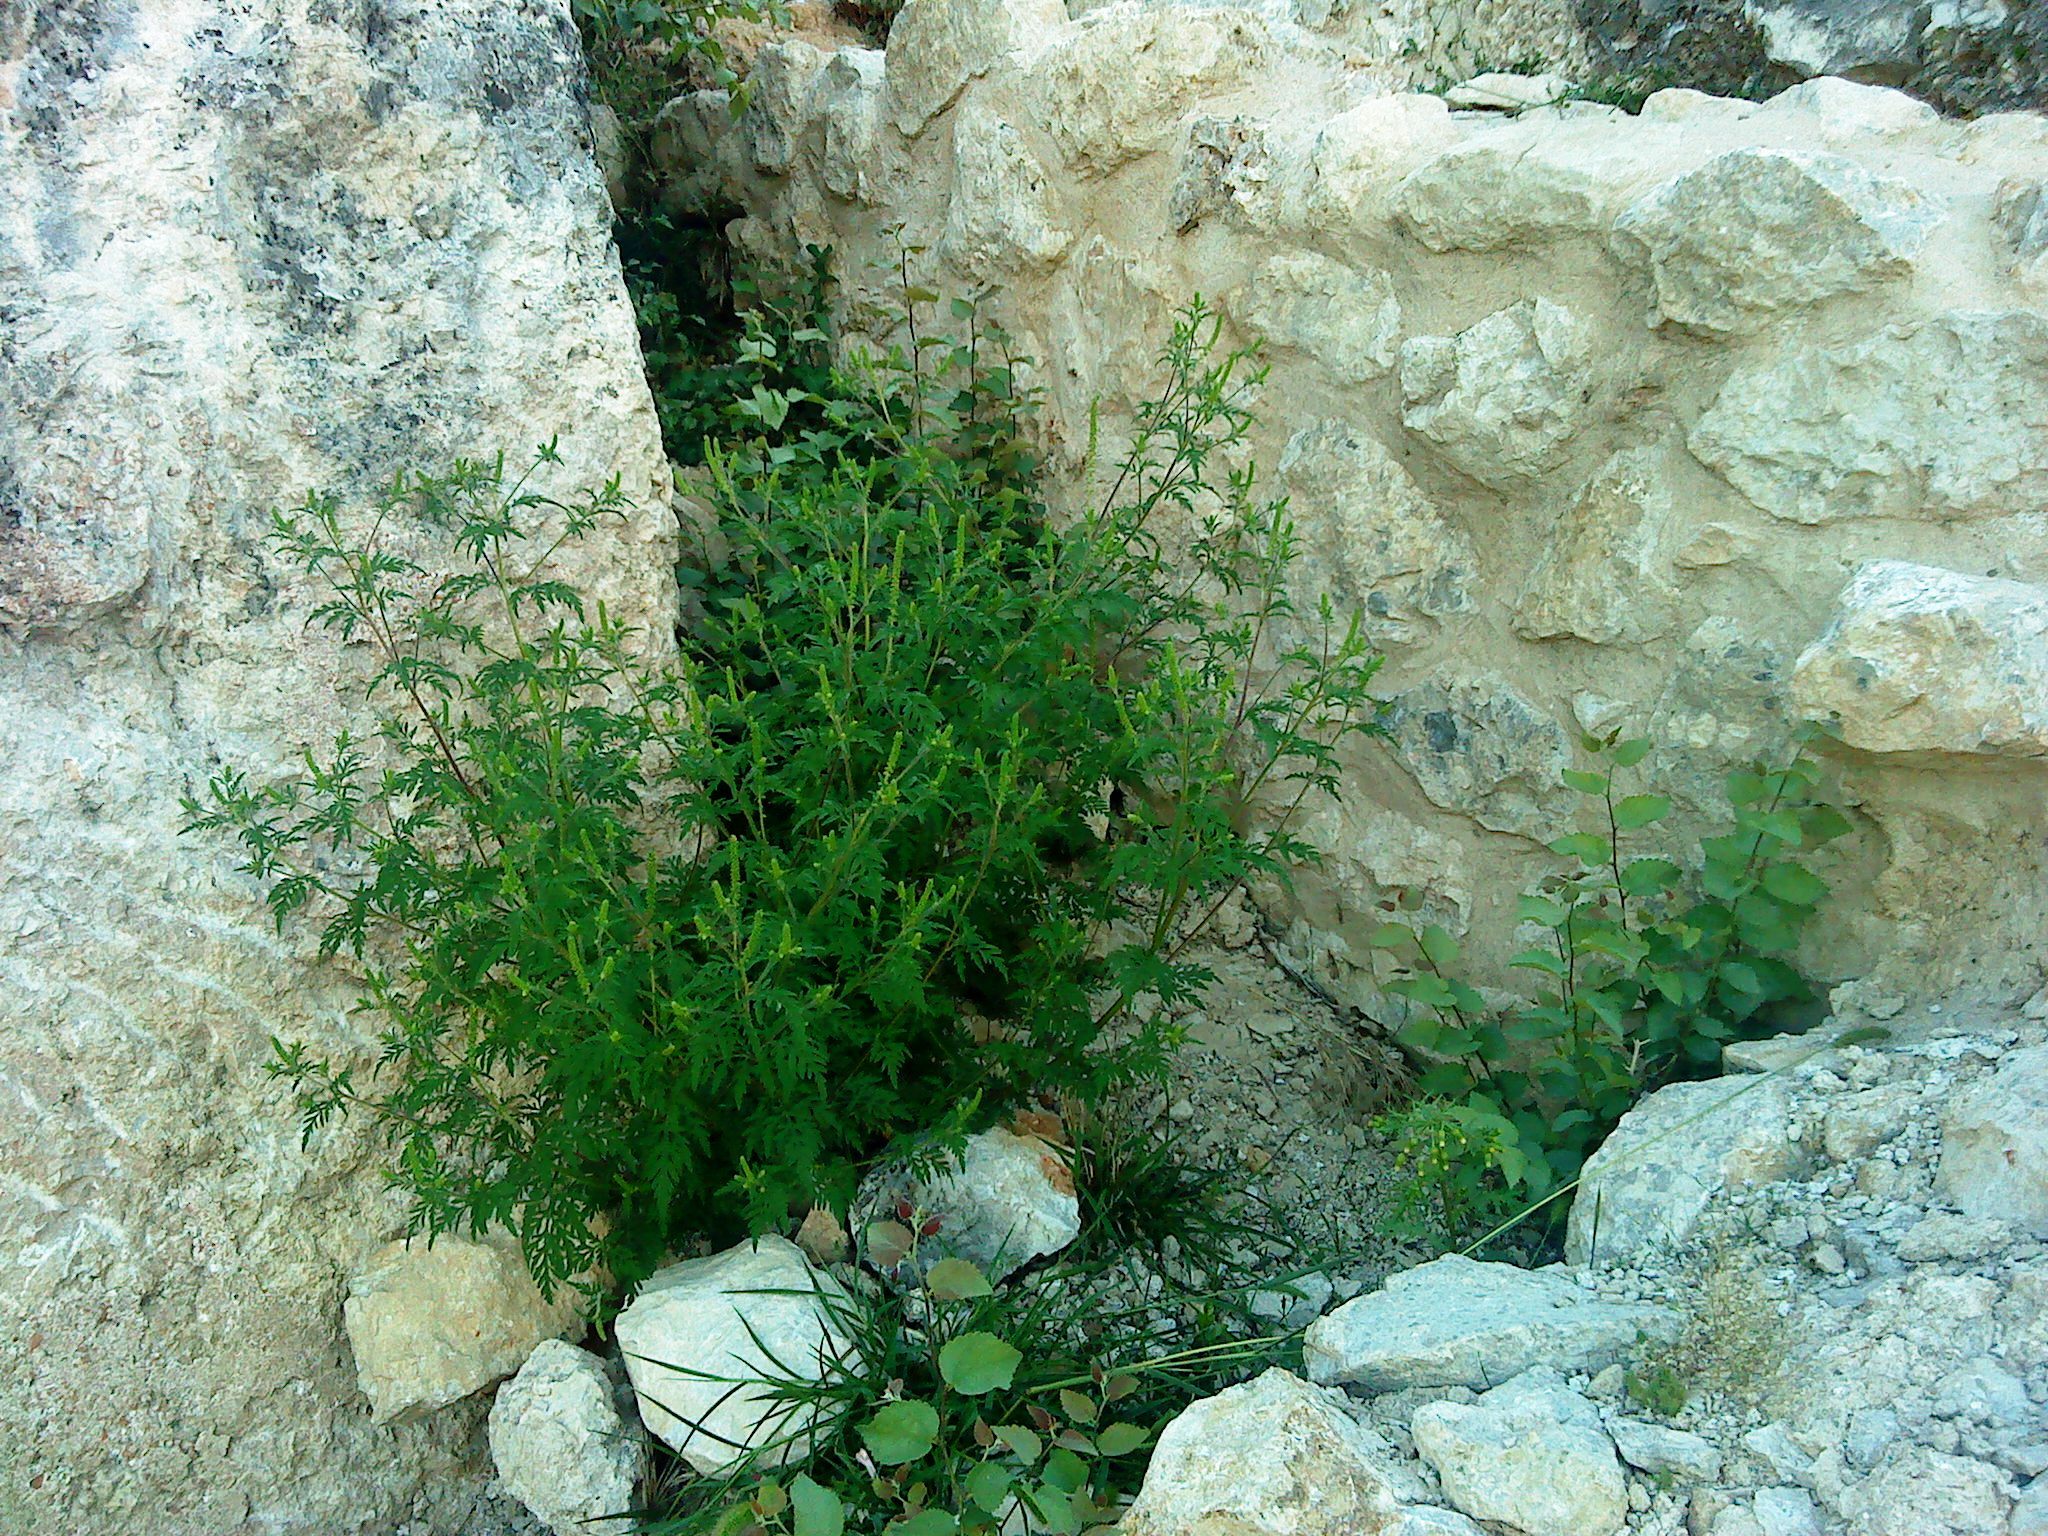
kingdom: Plantae
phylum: Tracheophyta
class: Magnoliopsida
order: Asterales
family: Asteraceae
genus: Ambrosia
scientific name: Ambrosia artemisiifolia
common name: Annual ragweed
